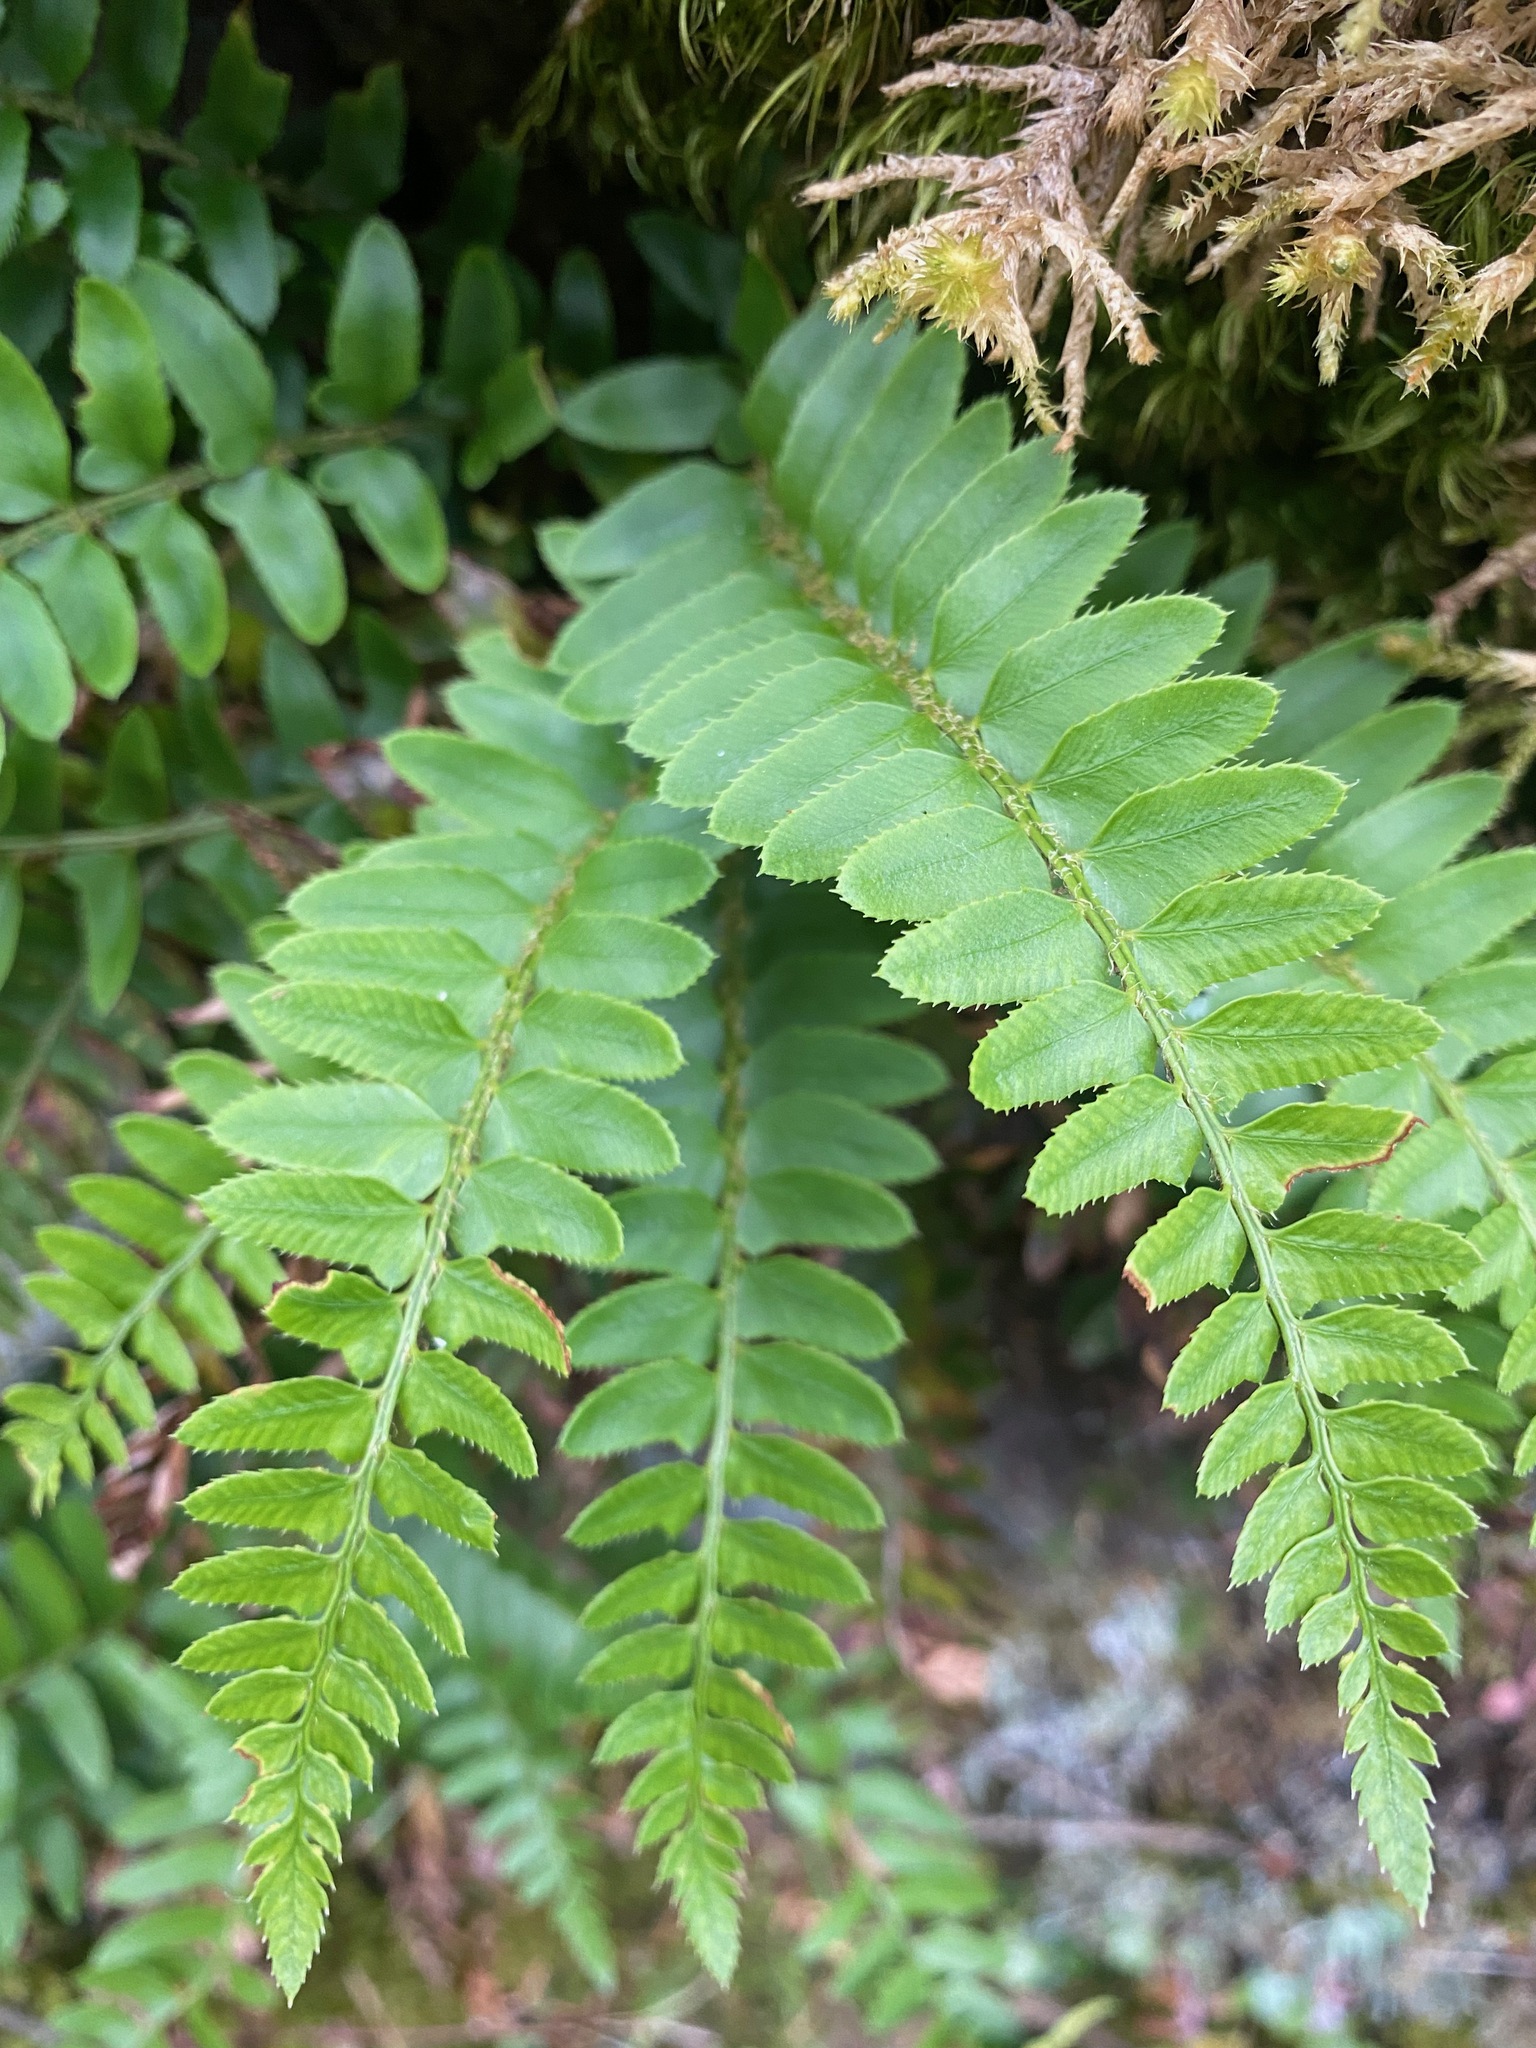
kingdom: Plantae
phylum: Tracheophyta
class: Polypodiopsida
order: Polypodiales
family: Dryopteridaceae
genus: Polystichum
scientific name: Polystichum imbricans
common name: Dwarf western sword fern
